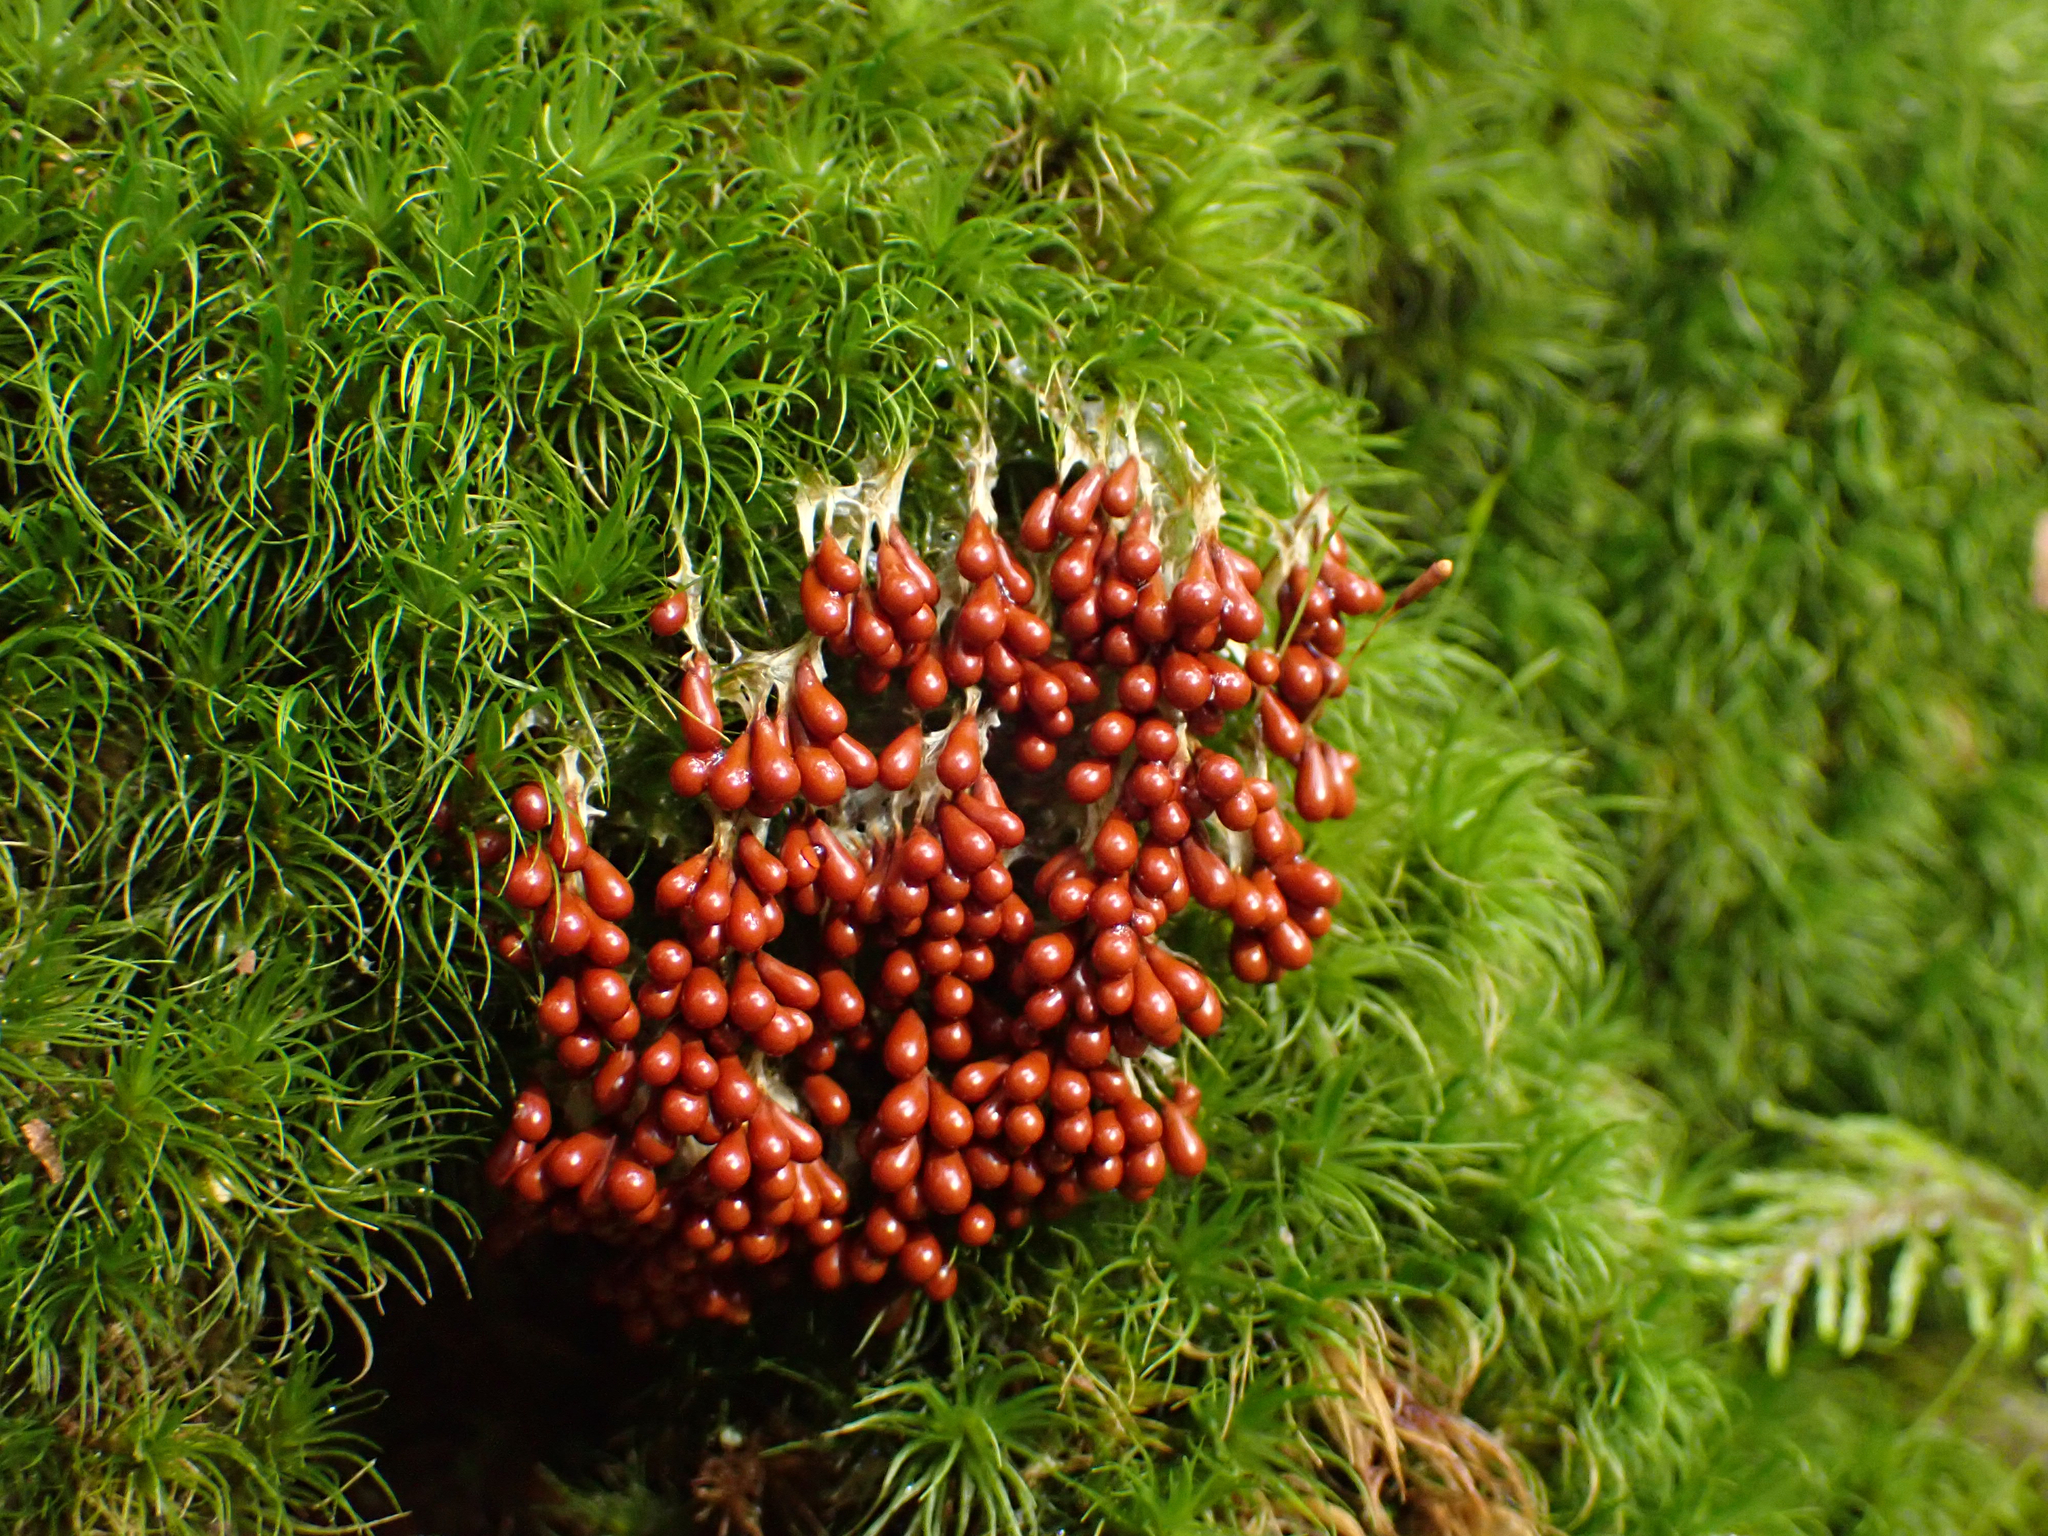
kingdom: Protozoa
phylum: Mycetozoa
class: Myxomycetes
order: Physarales
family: Physaraceae
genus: Leocarpus
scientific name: Leocarpus fragilis
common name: Insect-egg slime
